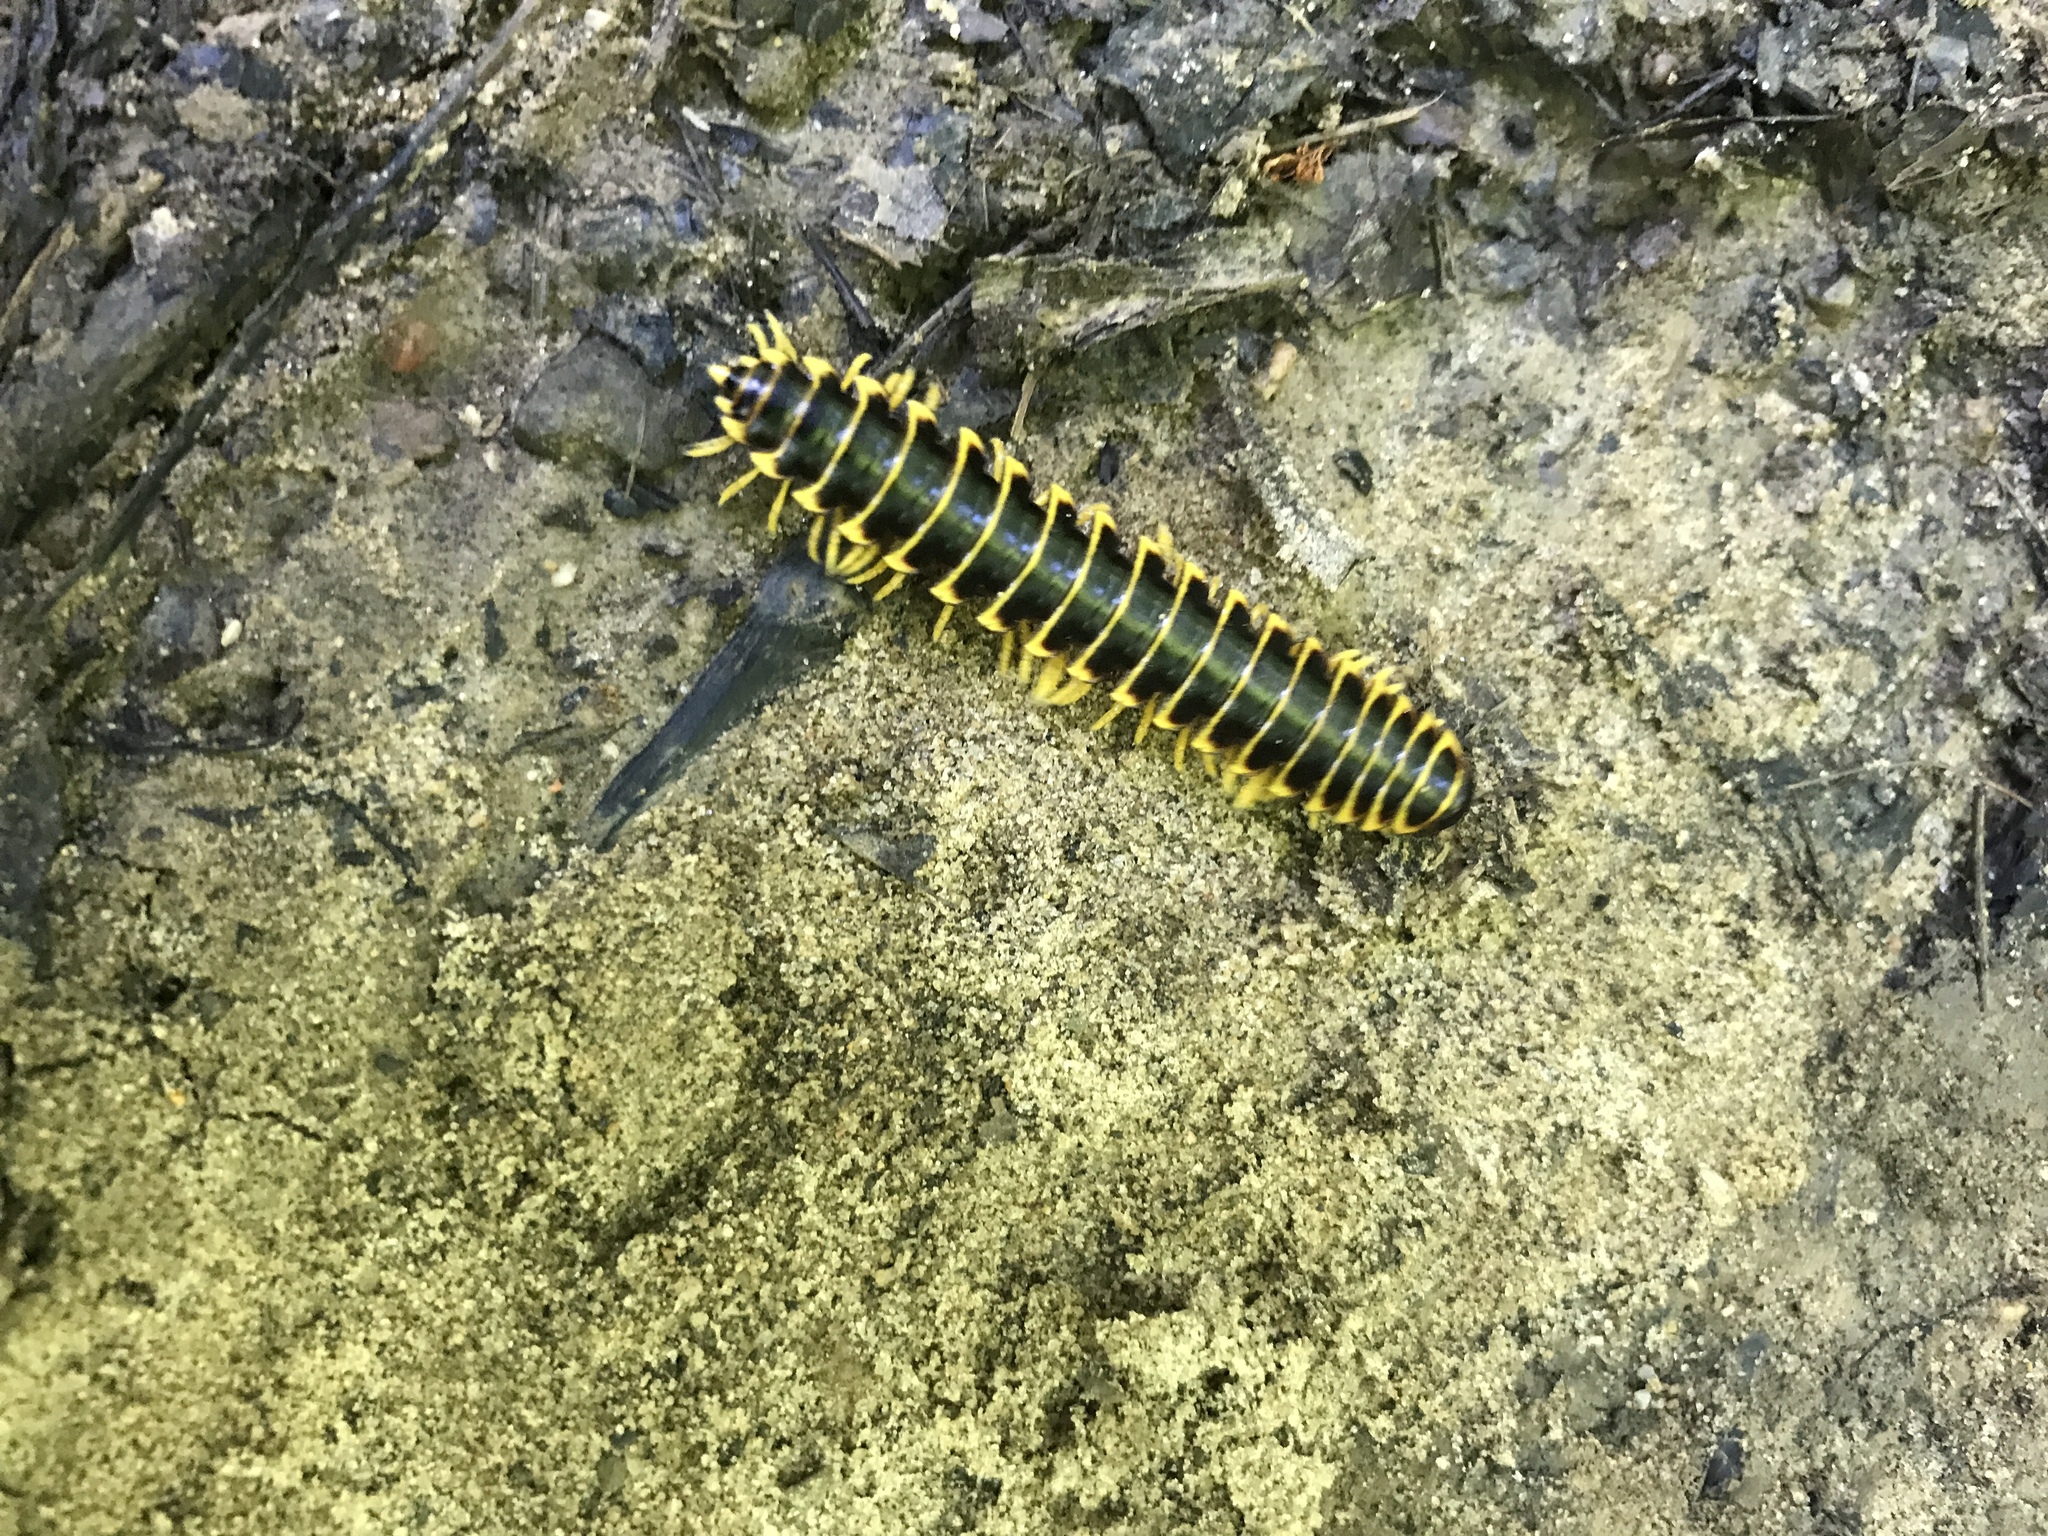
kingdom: Animalia
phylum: Arthropoda
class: Diplopoda
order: Polydesmida
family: Xystodesmidae
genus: Apheloria
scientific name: Apheloria virginiensis
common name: Black-and-gold flat millipede
